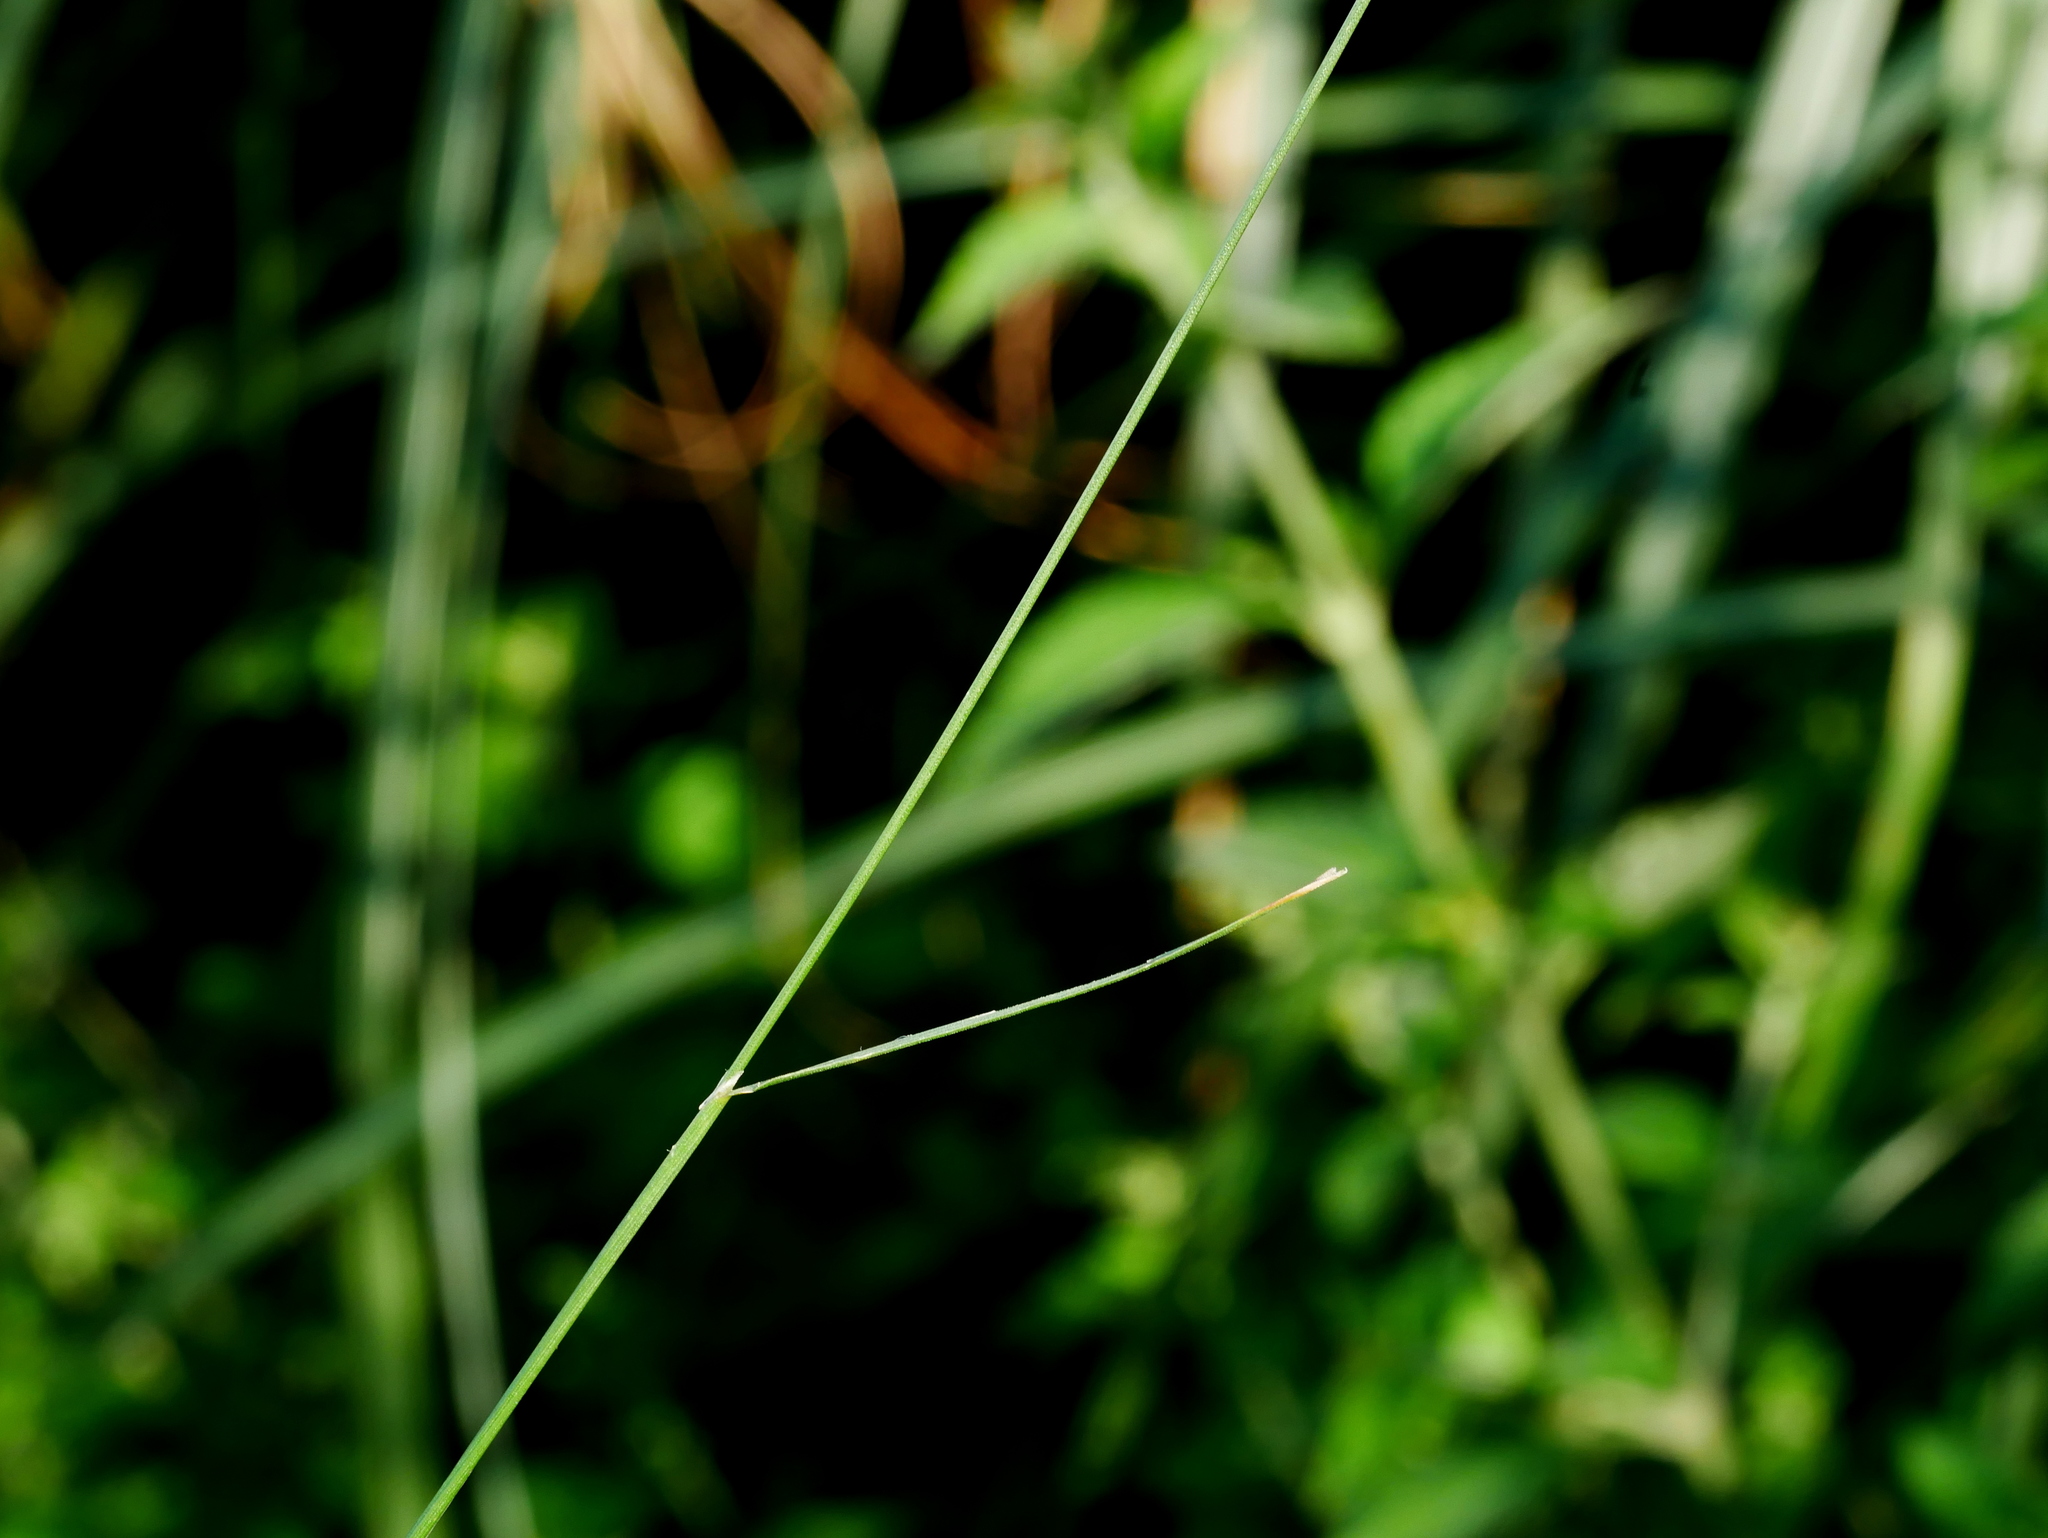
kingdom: Plantae
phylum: Tracheophyta
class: Liliopsida
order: Poales
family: Poaceae
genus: Agrostis
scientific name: Agrostis clavata
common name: Clavate bent
